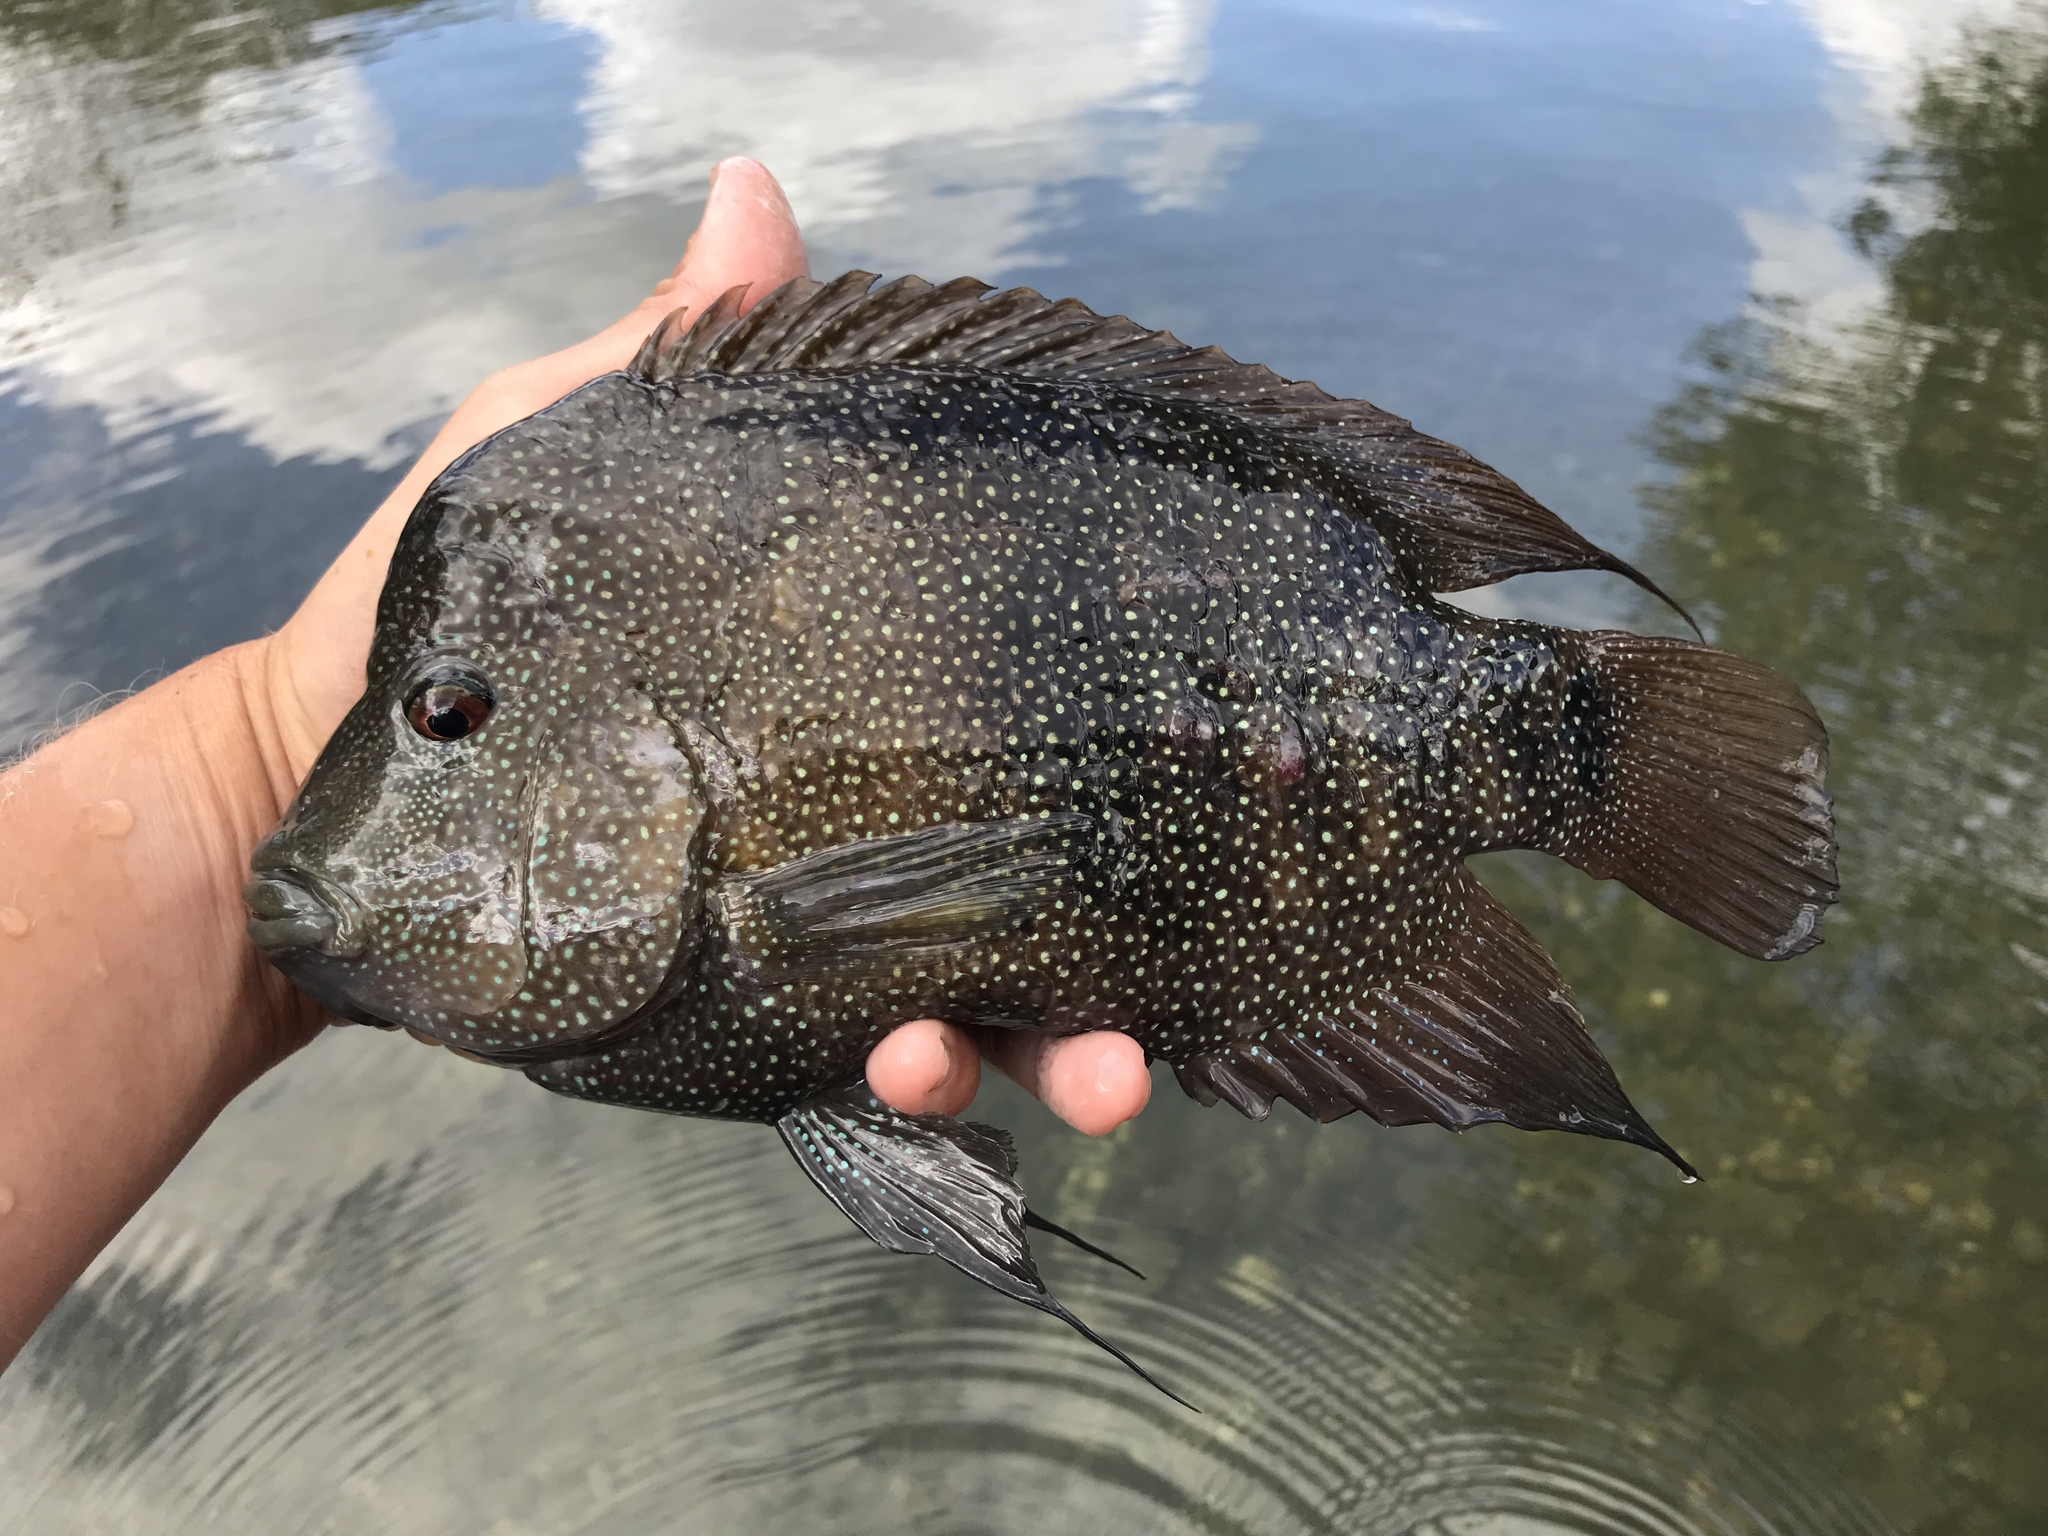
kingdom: Animalia
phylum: Chordata
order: Perciformes
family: Cichlidae
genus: Herichthys
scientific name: Herichthys cyanoguttatus
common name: Rio grande cichlid
